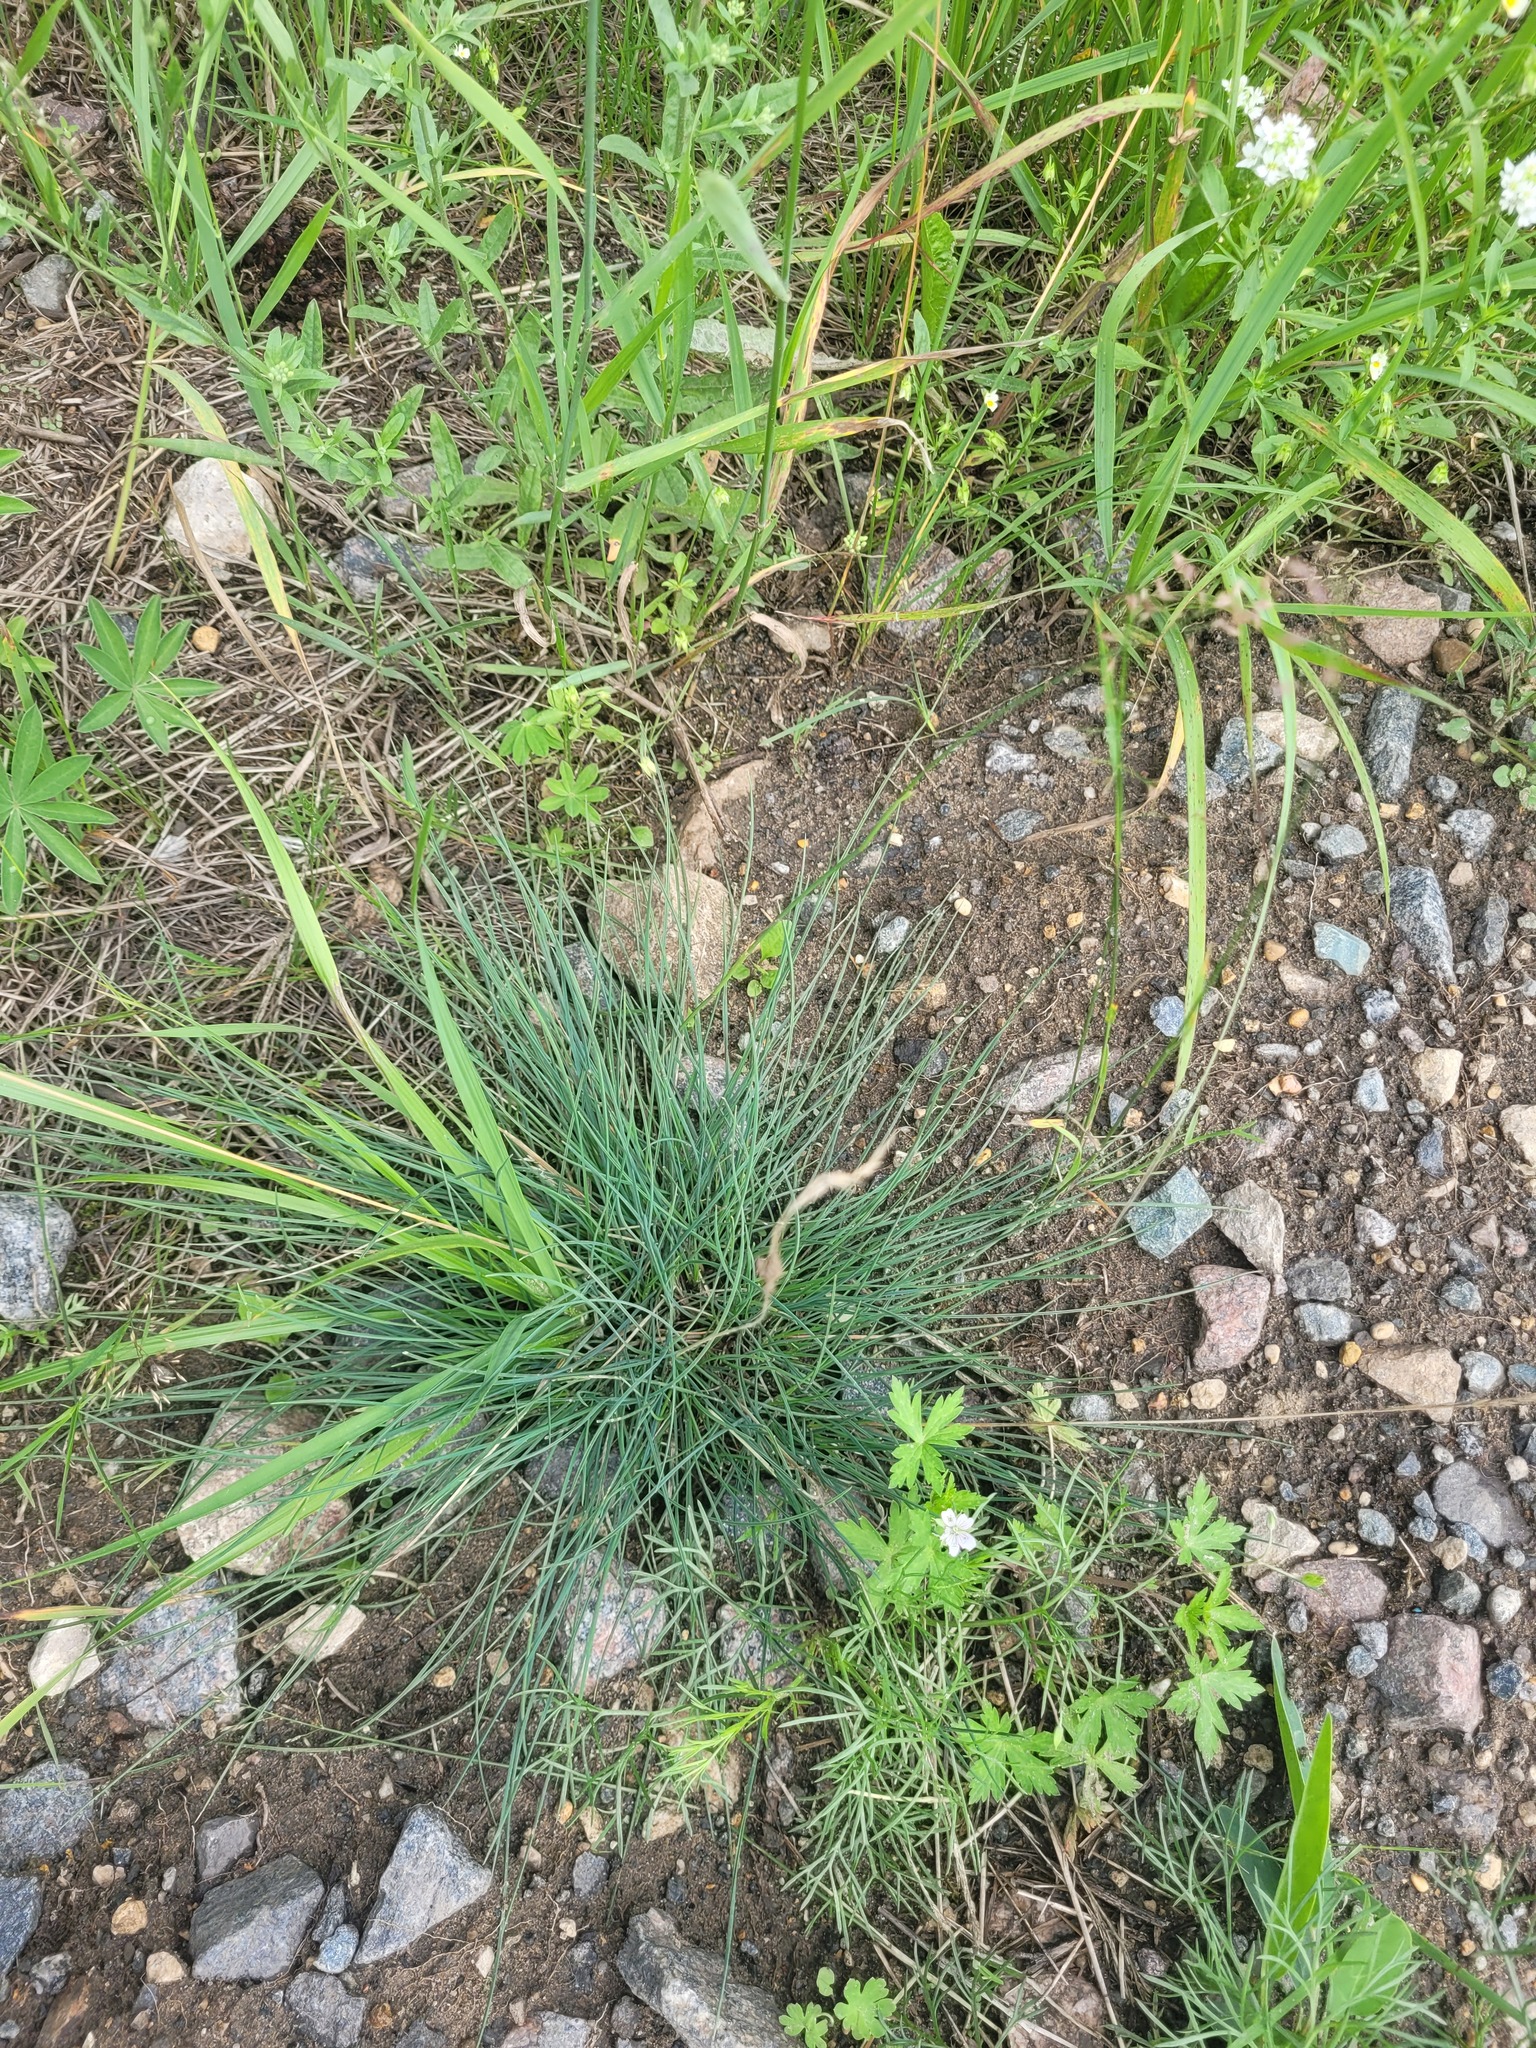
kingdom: Plantae
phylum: Tracheophyta
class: Liliopsida
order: Poales
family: Poaceae
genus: Festuca
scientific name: Festuca trachyphylla
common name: Hard fescue
